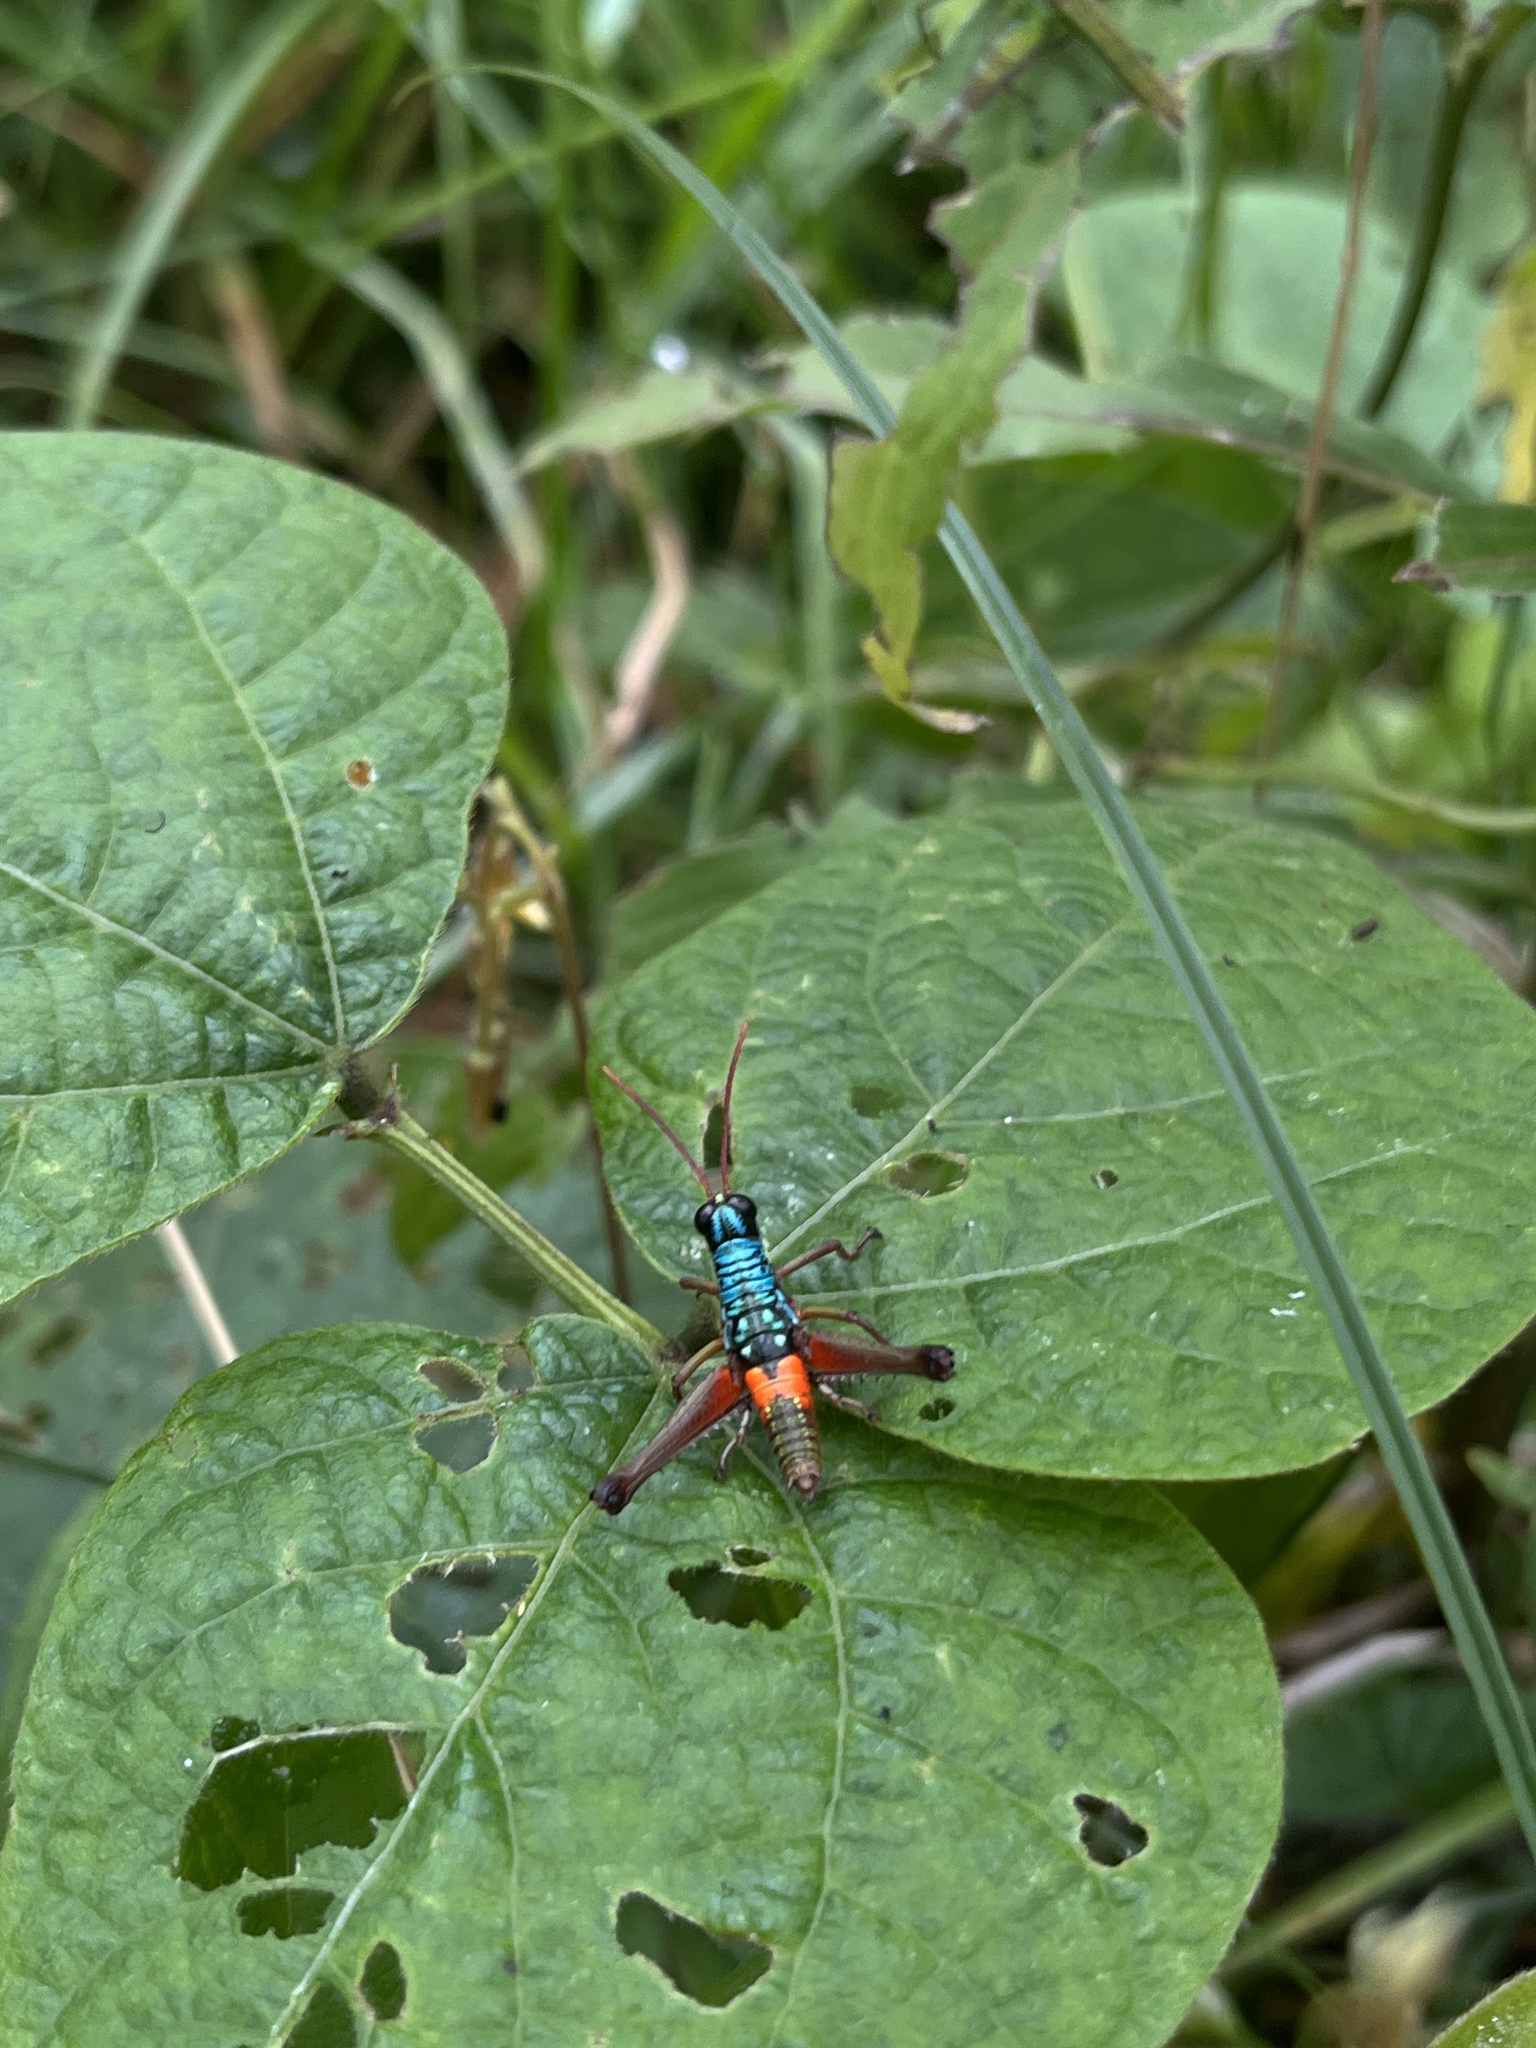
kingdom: Animalia
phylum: Arthropoda
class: Insecta
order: Orthoptera
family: Acrididae
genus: Opaonella
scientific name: Opaonella tenuis
